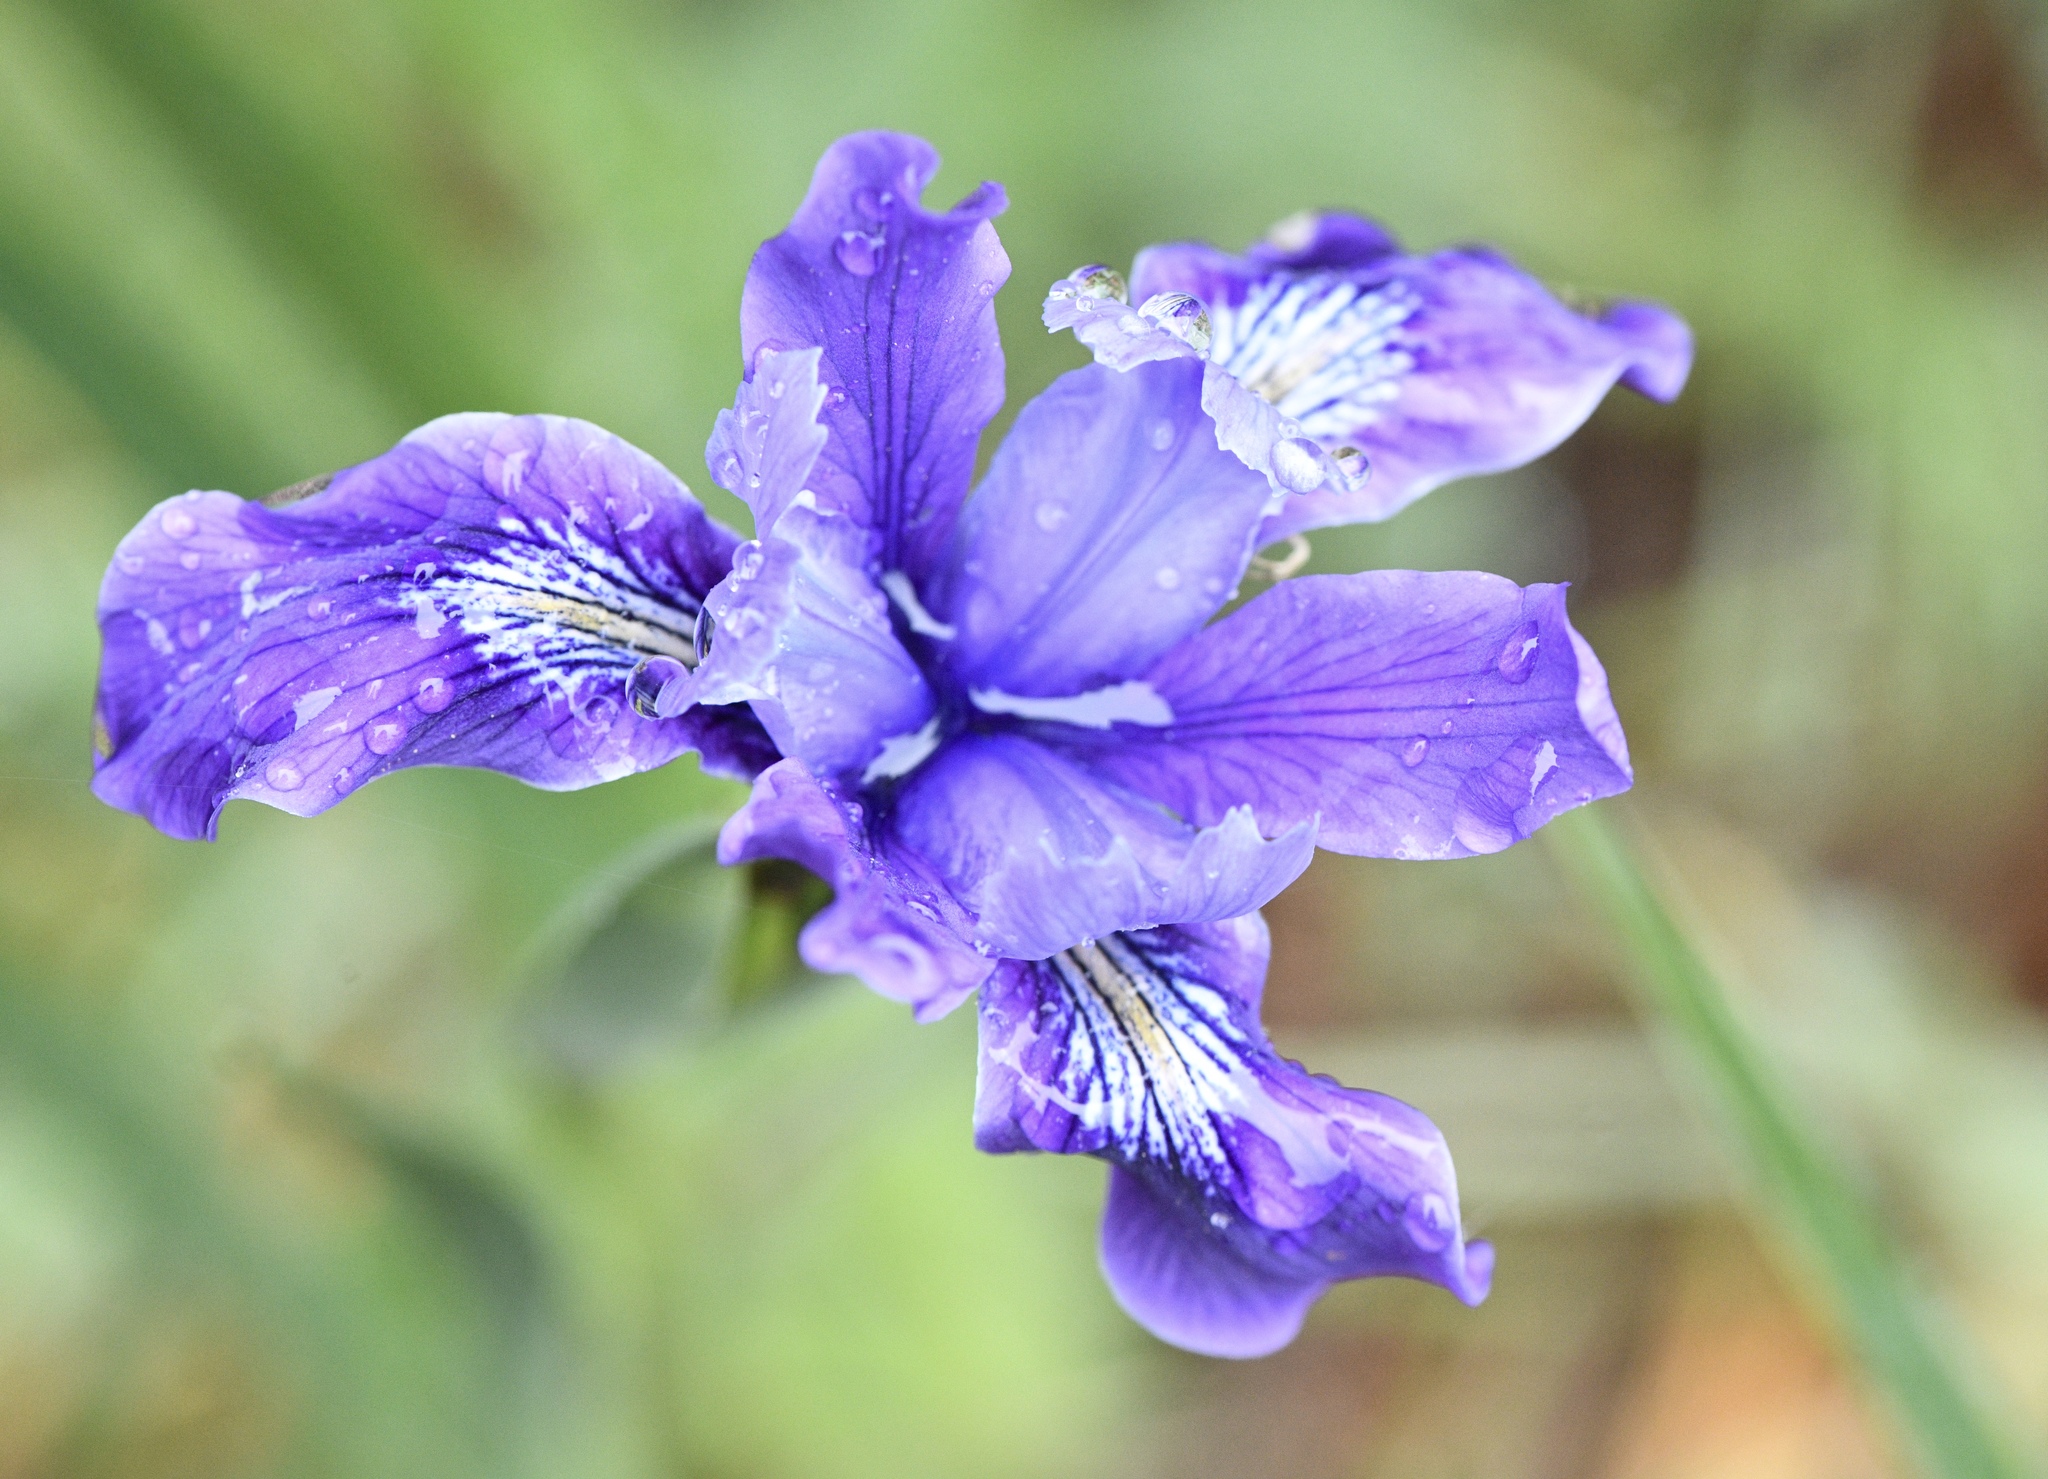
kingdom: Plantae
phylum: Tracheophyta
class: Liliopsida
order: Asparagales
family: Iridaceae
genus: Iris
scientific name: Iris douglasiana
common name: Marin iris
